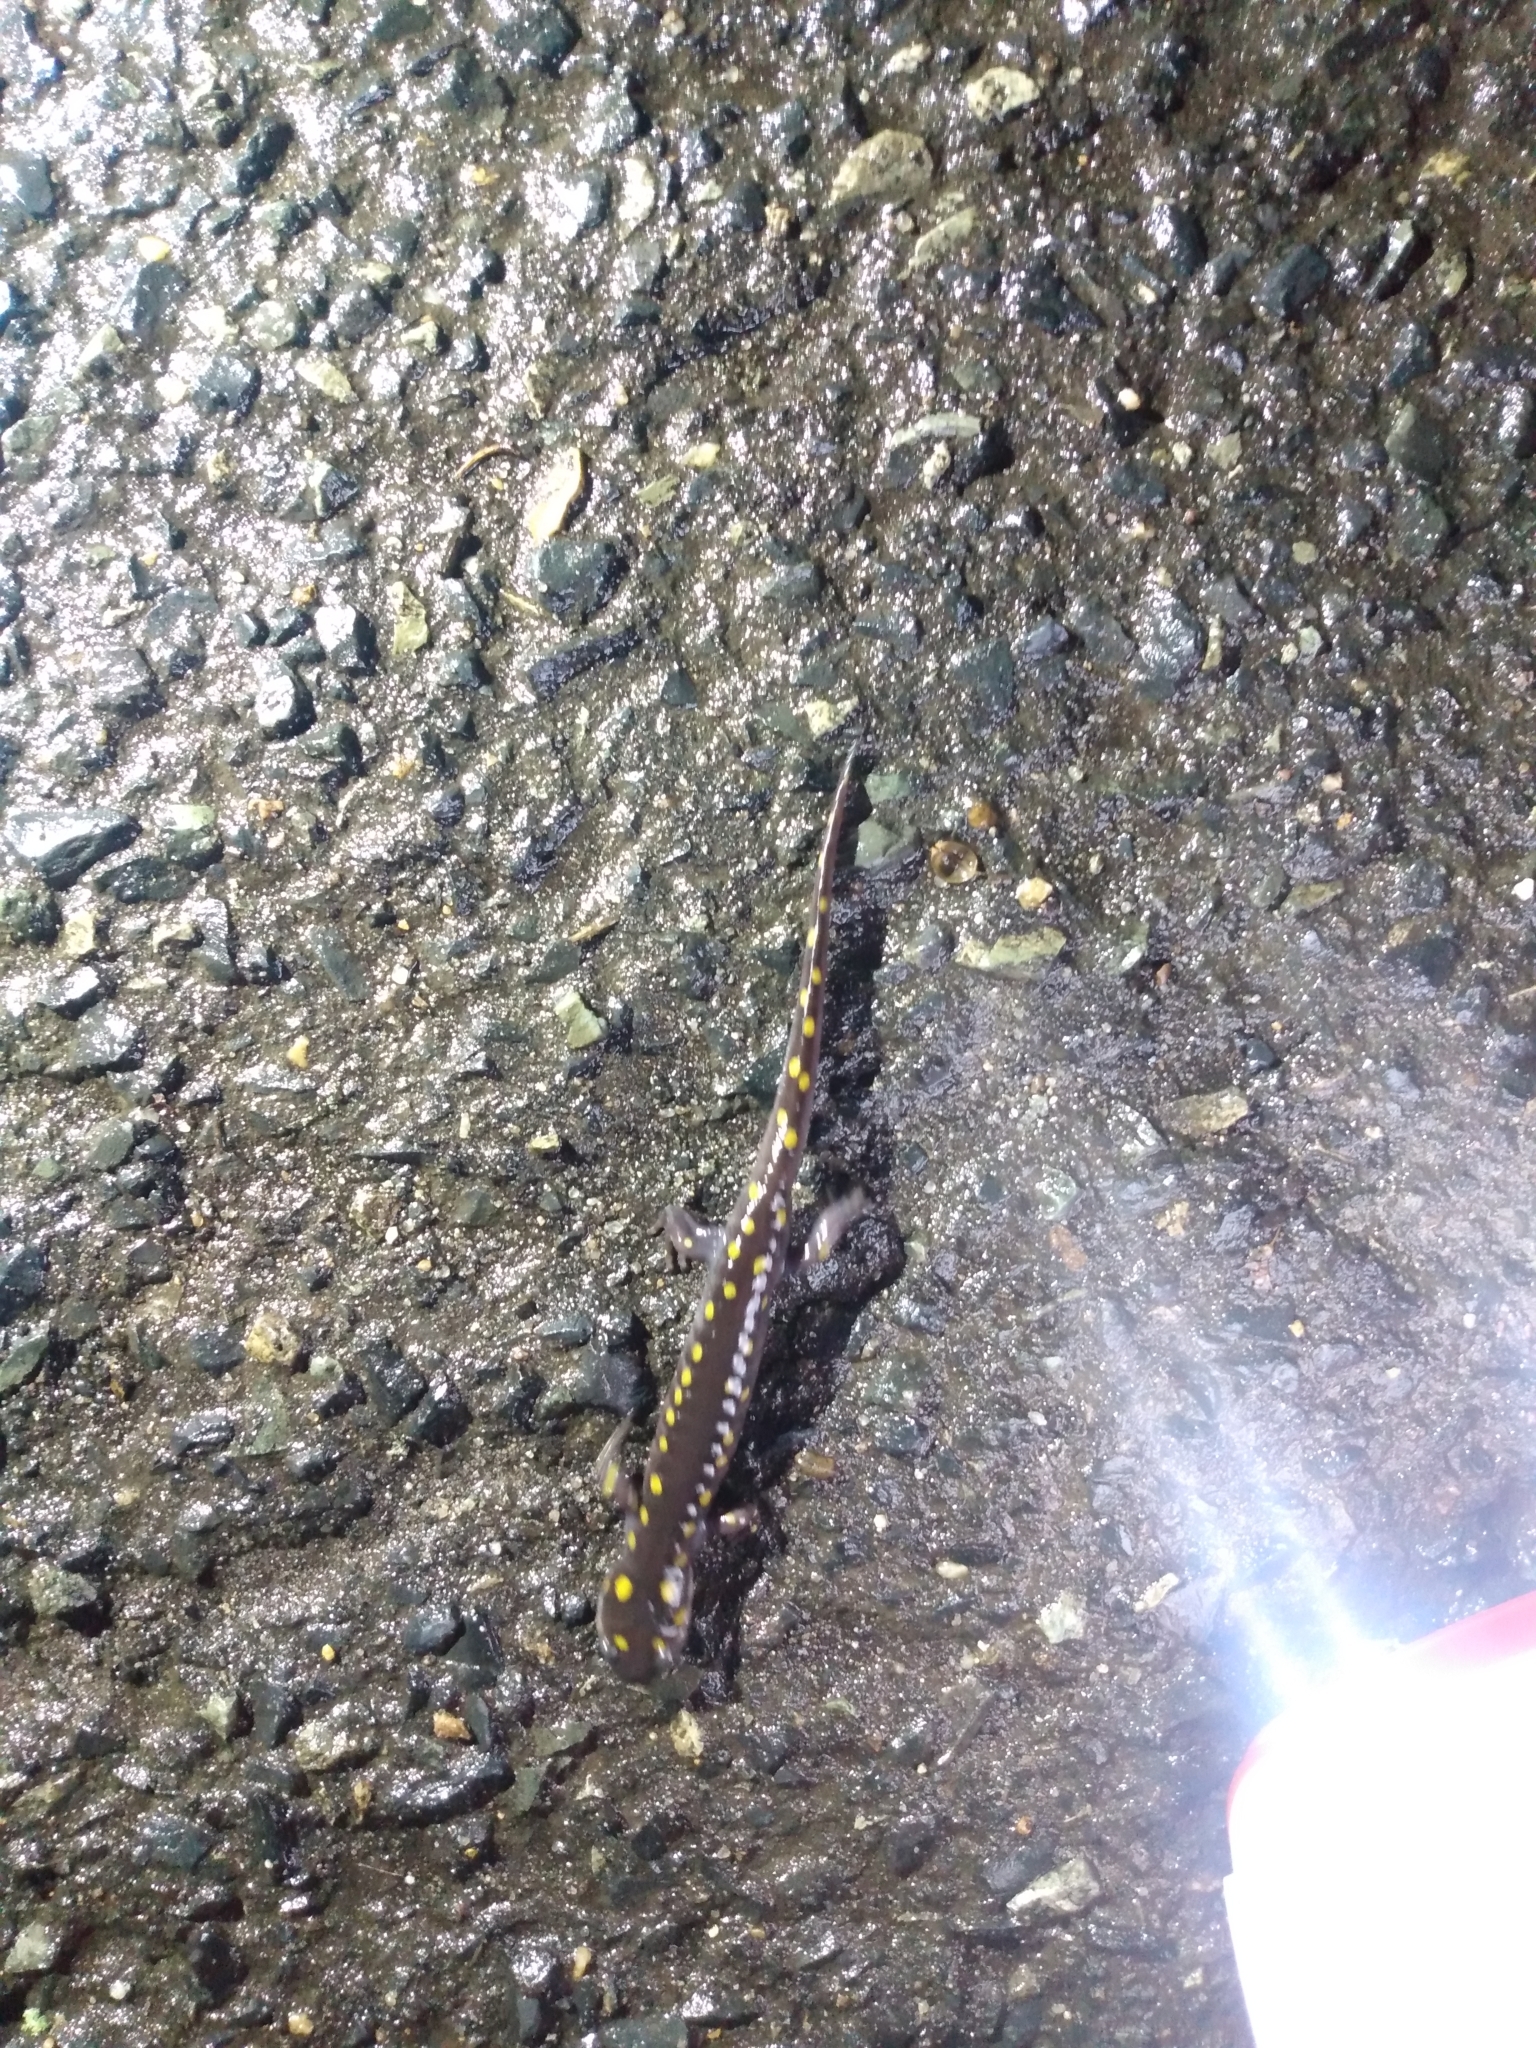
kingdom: Animalia
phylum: Chordata
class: Amphibia
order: Caudata
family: Ambystomatidae
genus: Ambystoma
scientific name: Ambystoma maculatum
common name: Spotted salamander
